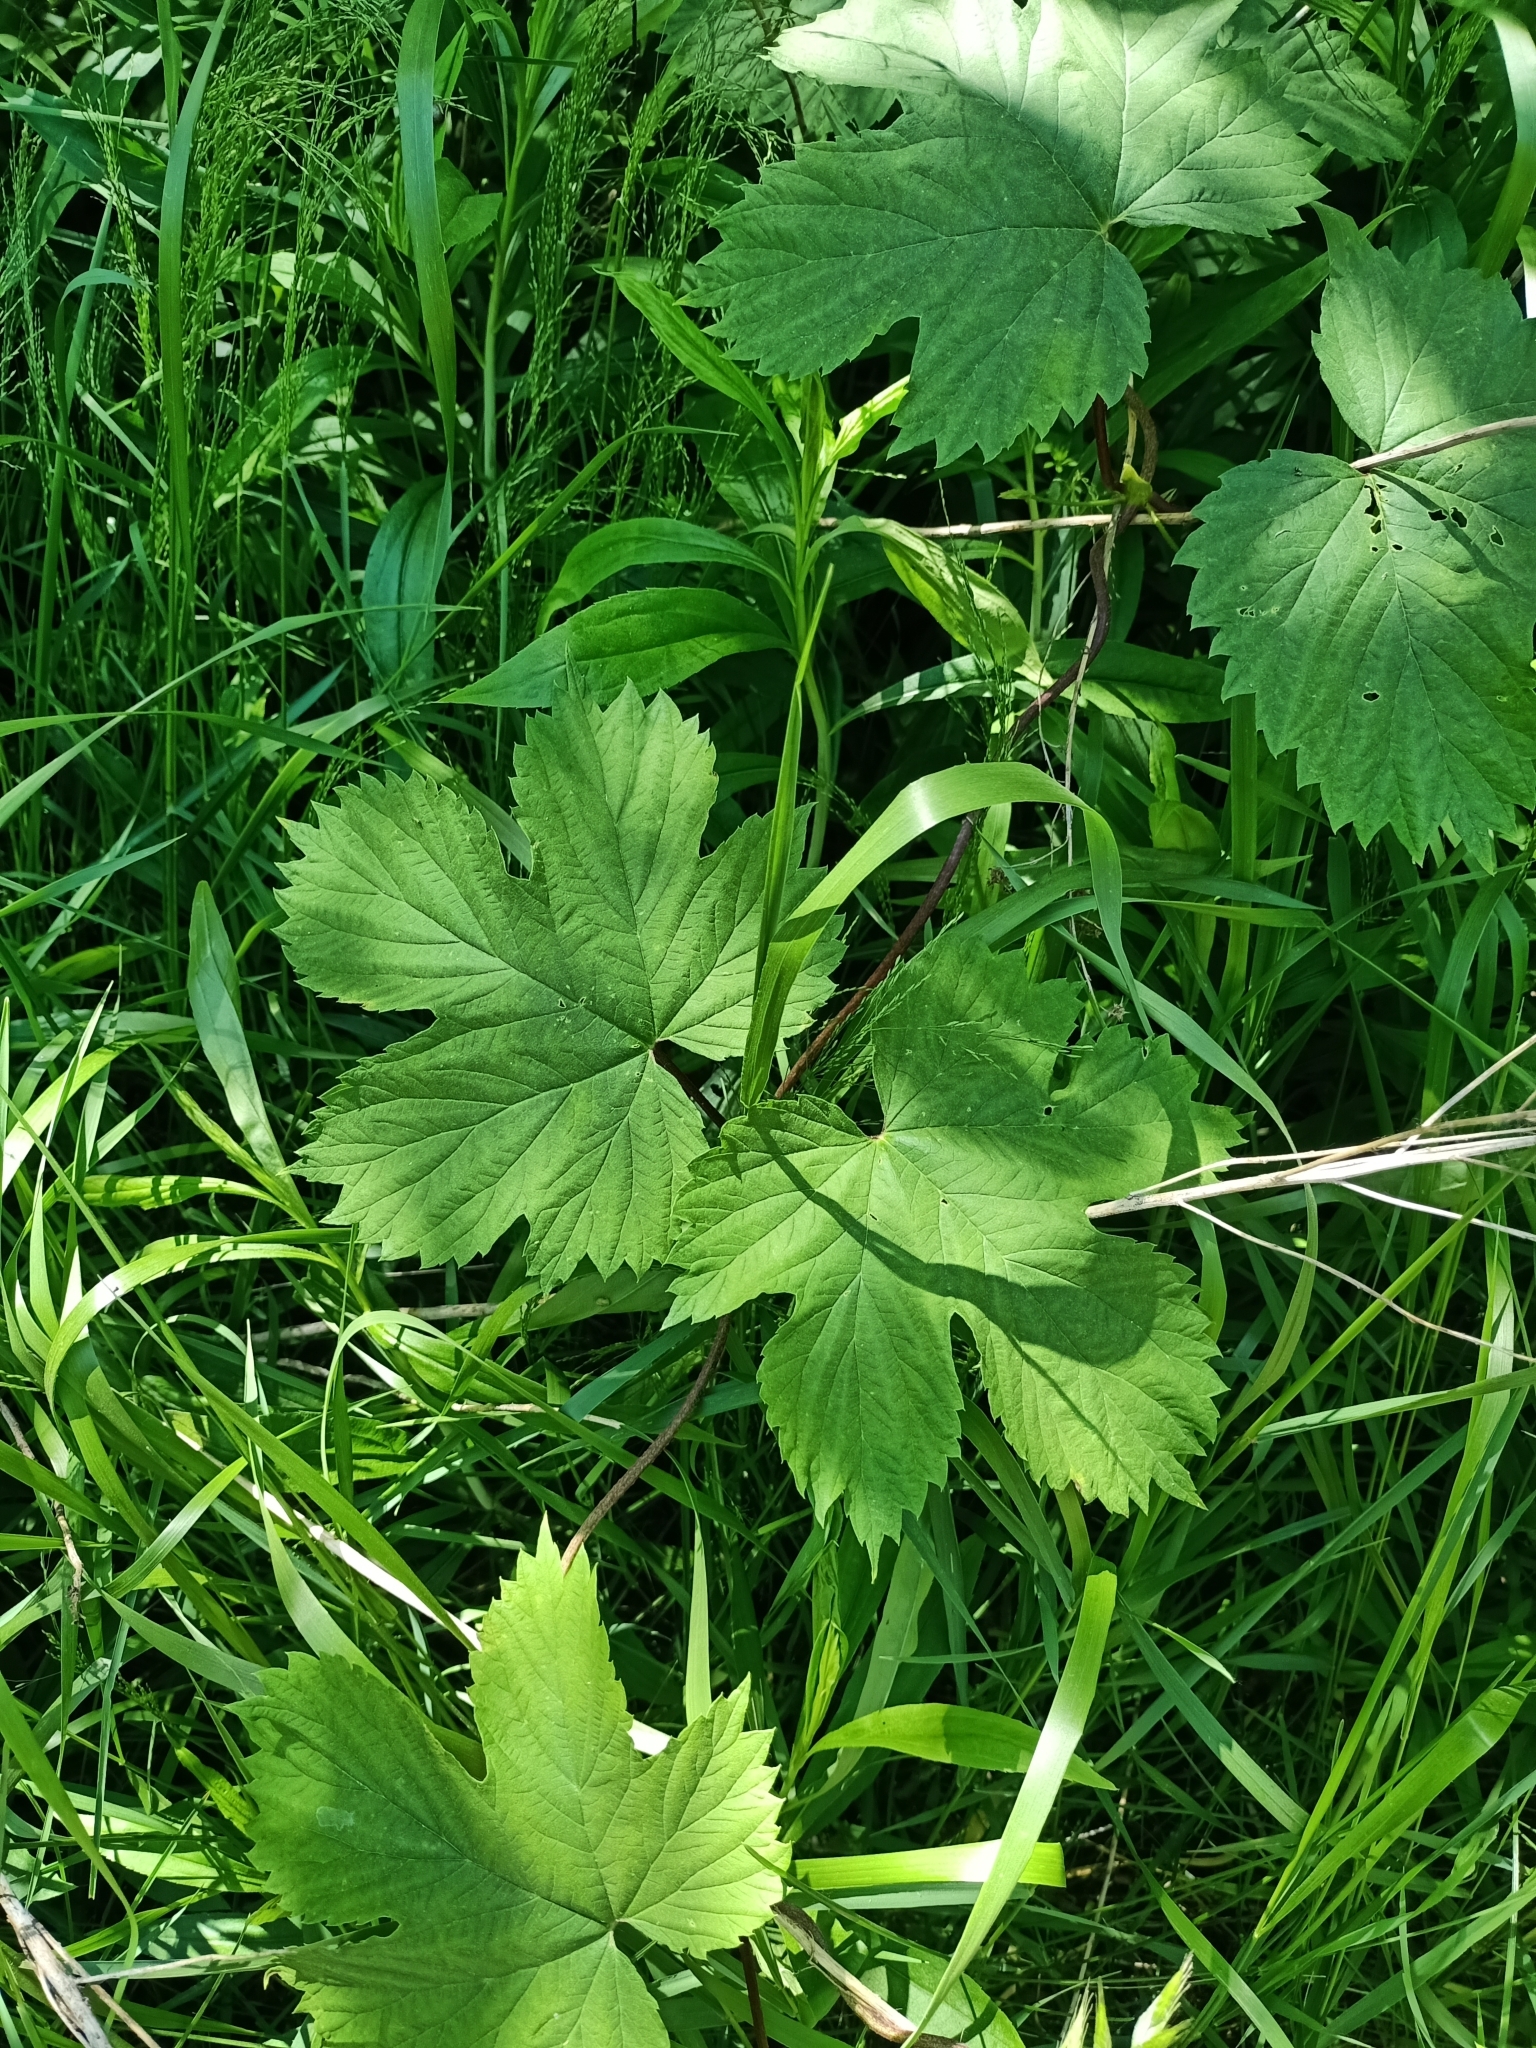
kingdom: Plantae
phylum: Tracheophyta
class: Magnoliopsida
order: Rosales
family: Cannabaceae
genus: Humulus
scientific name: Humulus lupulus
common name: Hop
